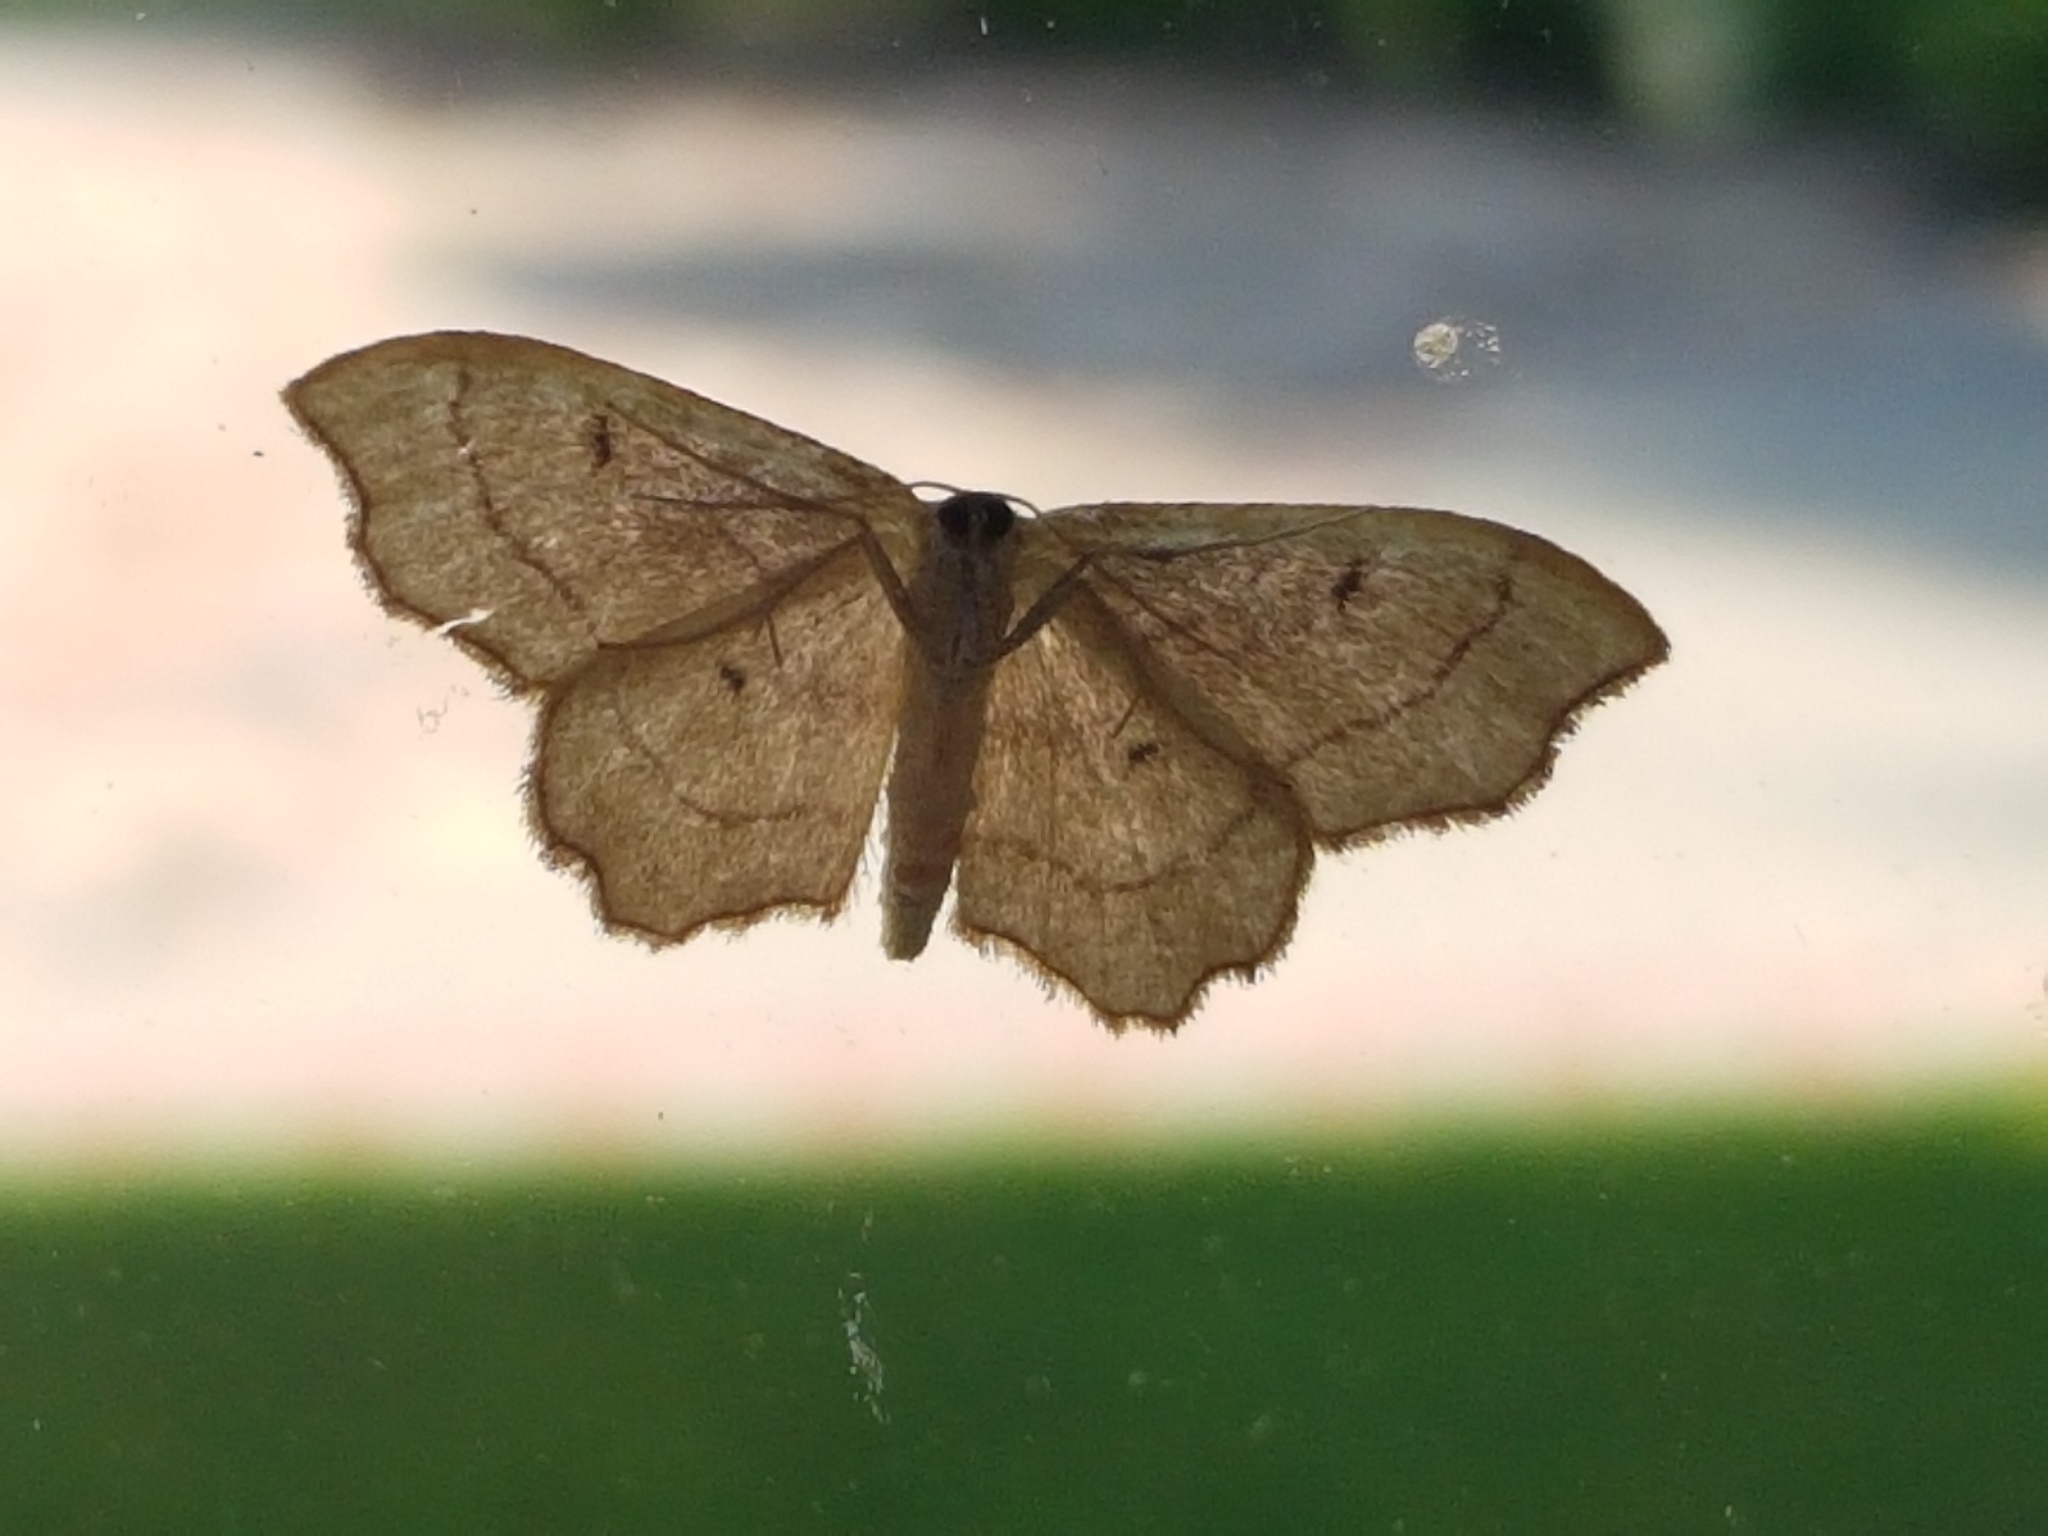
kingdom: Animalia
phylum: Arthropoda
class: Insecta
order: Lepidoptera
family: Geometridae
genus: Idaea
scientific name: Idaea emarginata
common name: Small scallop
